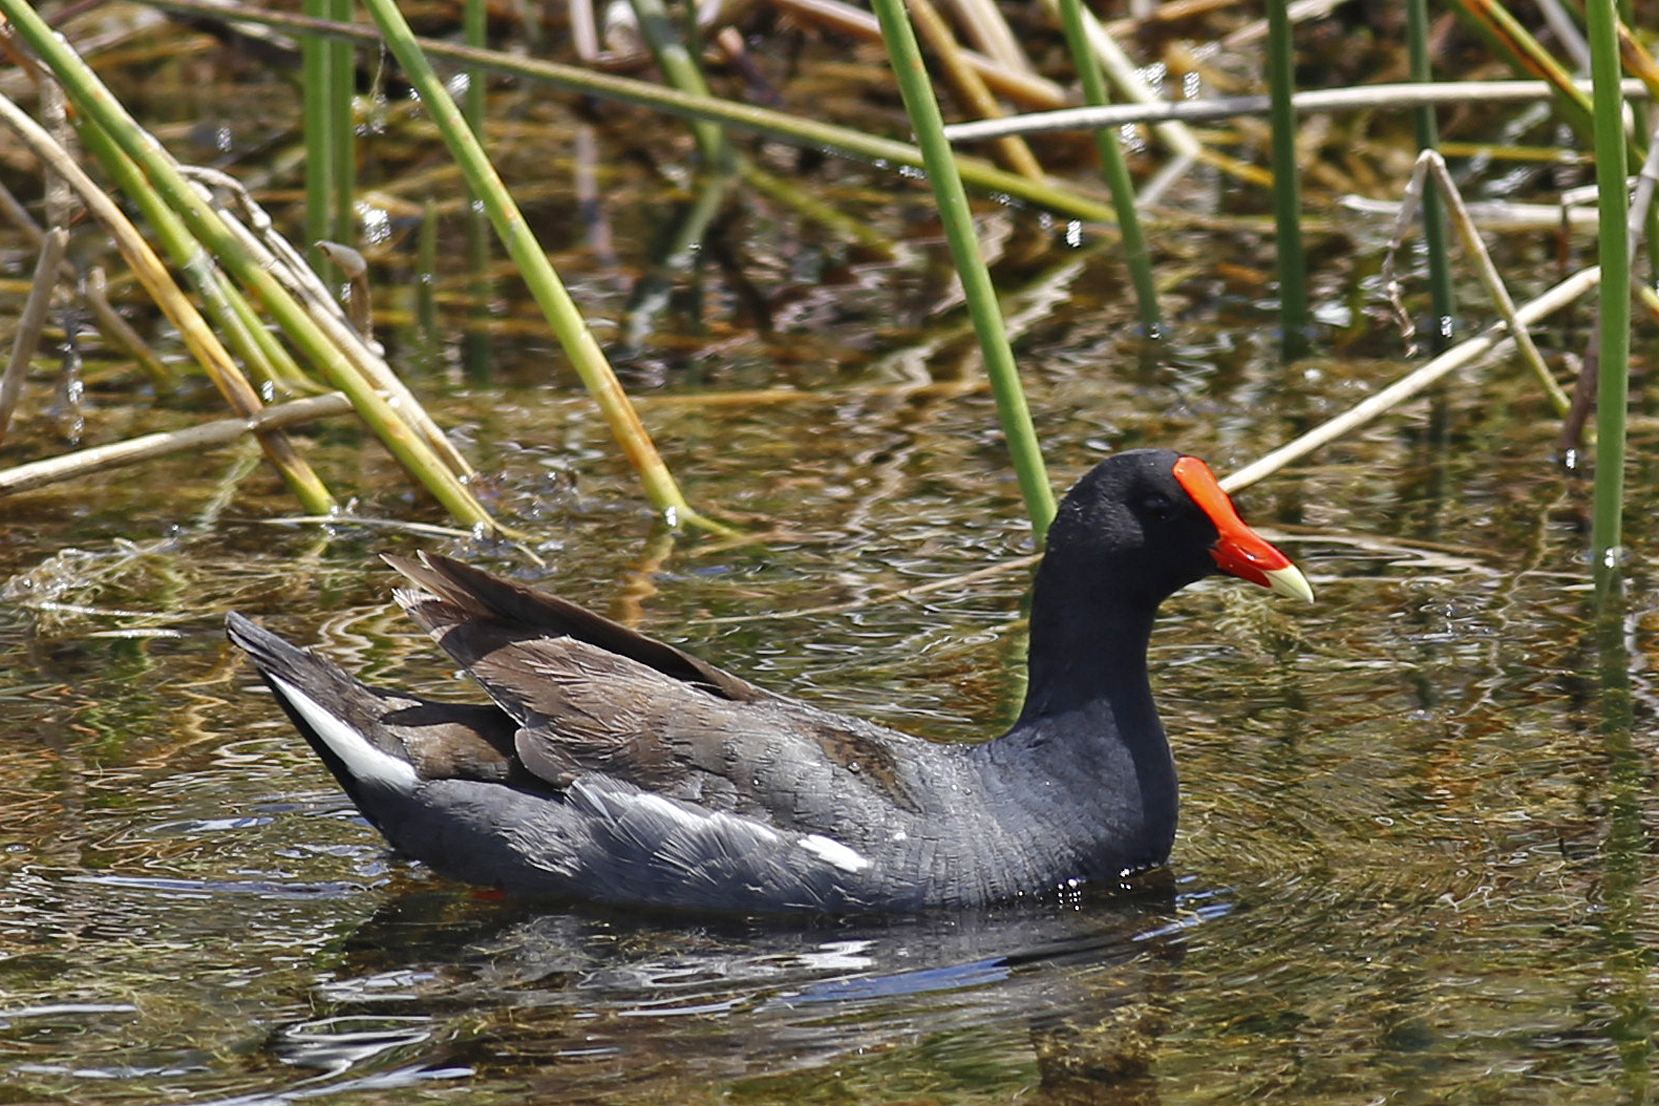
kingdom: Animalia
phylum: Chordata
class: Aves
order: Gruiformes
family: Rallidae
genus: Gallinula
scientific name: Gallinula chloropus
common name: Common moorhen
